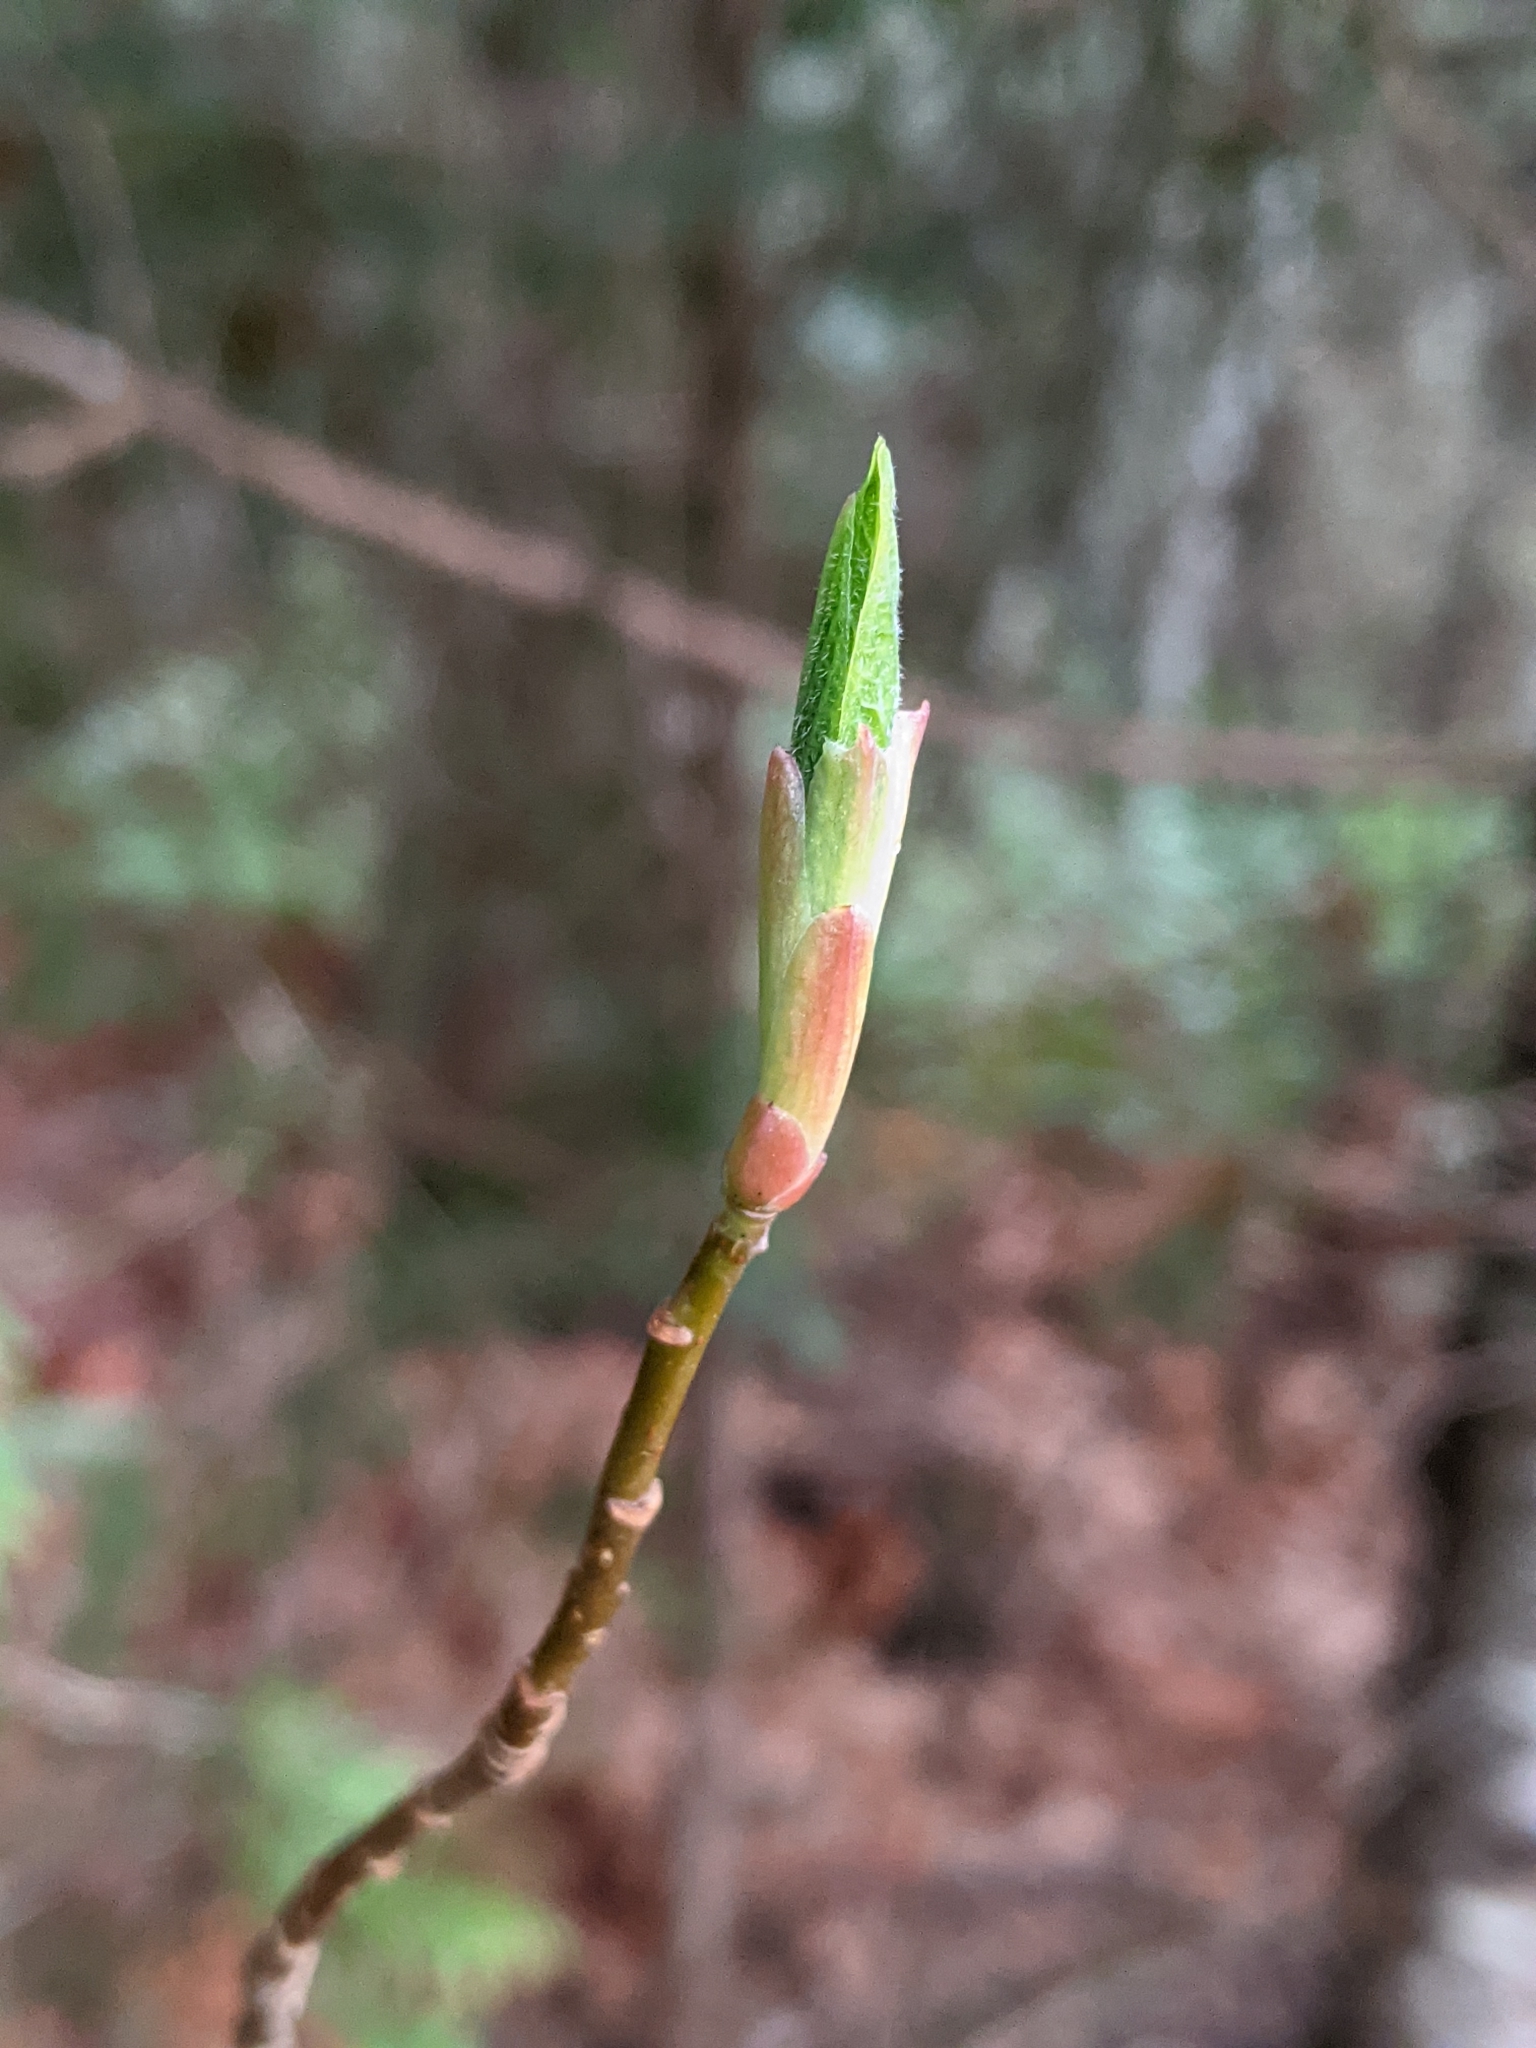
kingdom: Plantae
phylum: Tracheophyta
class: Magnoliopsida
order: Rosales
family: Rosaceae
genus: Oemleria
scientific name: Oemleria cerasiformis
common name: Osoberry
